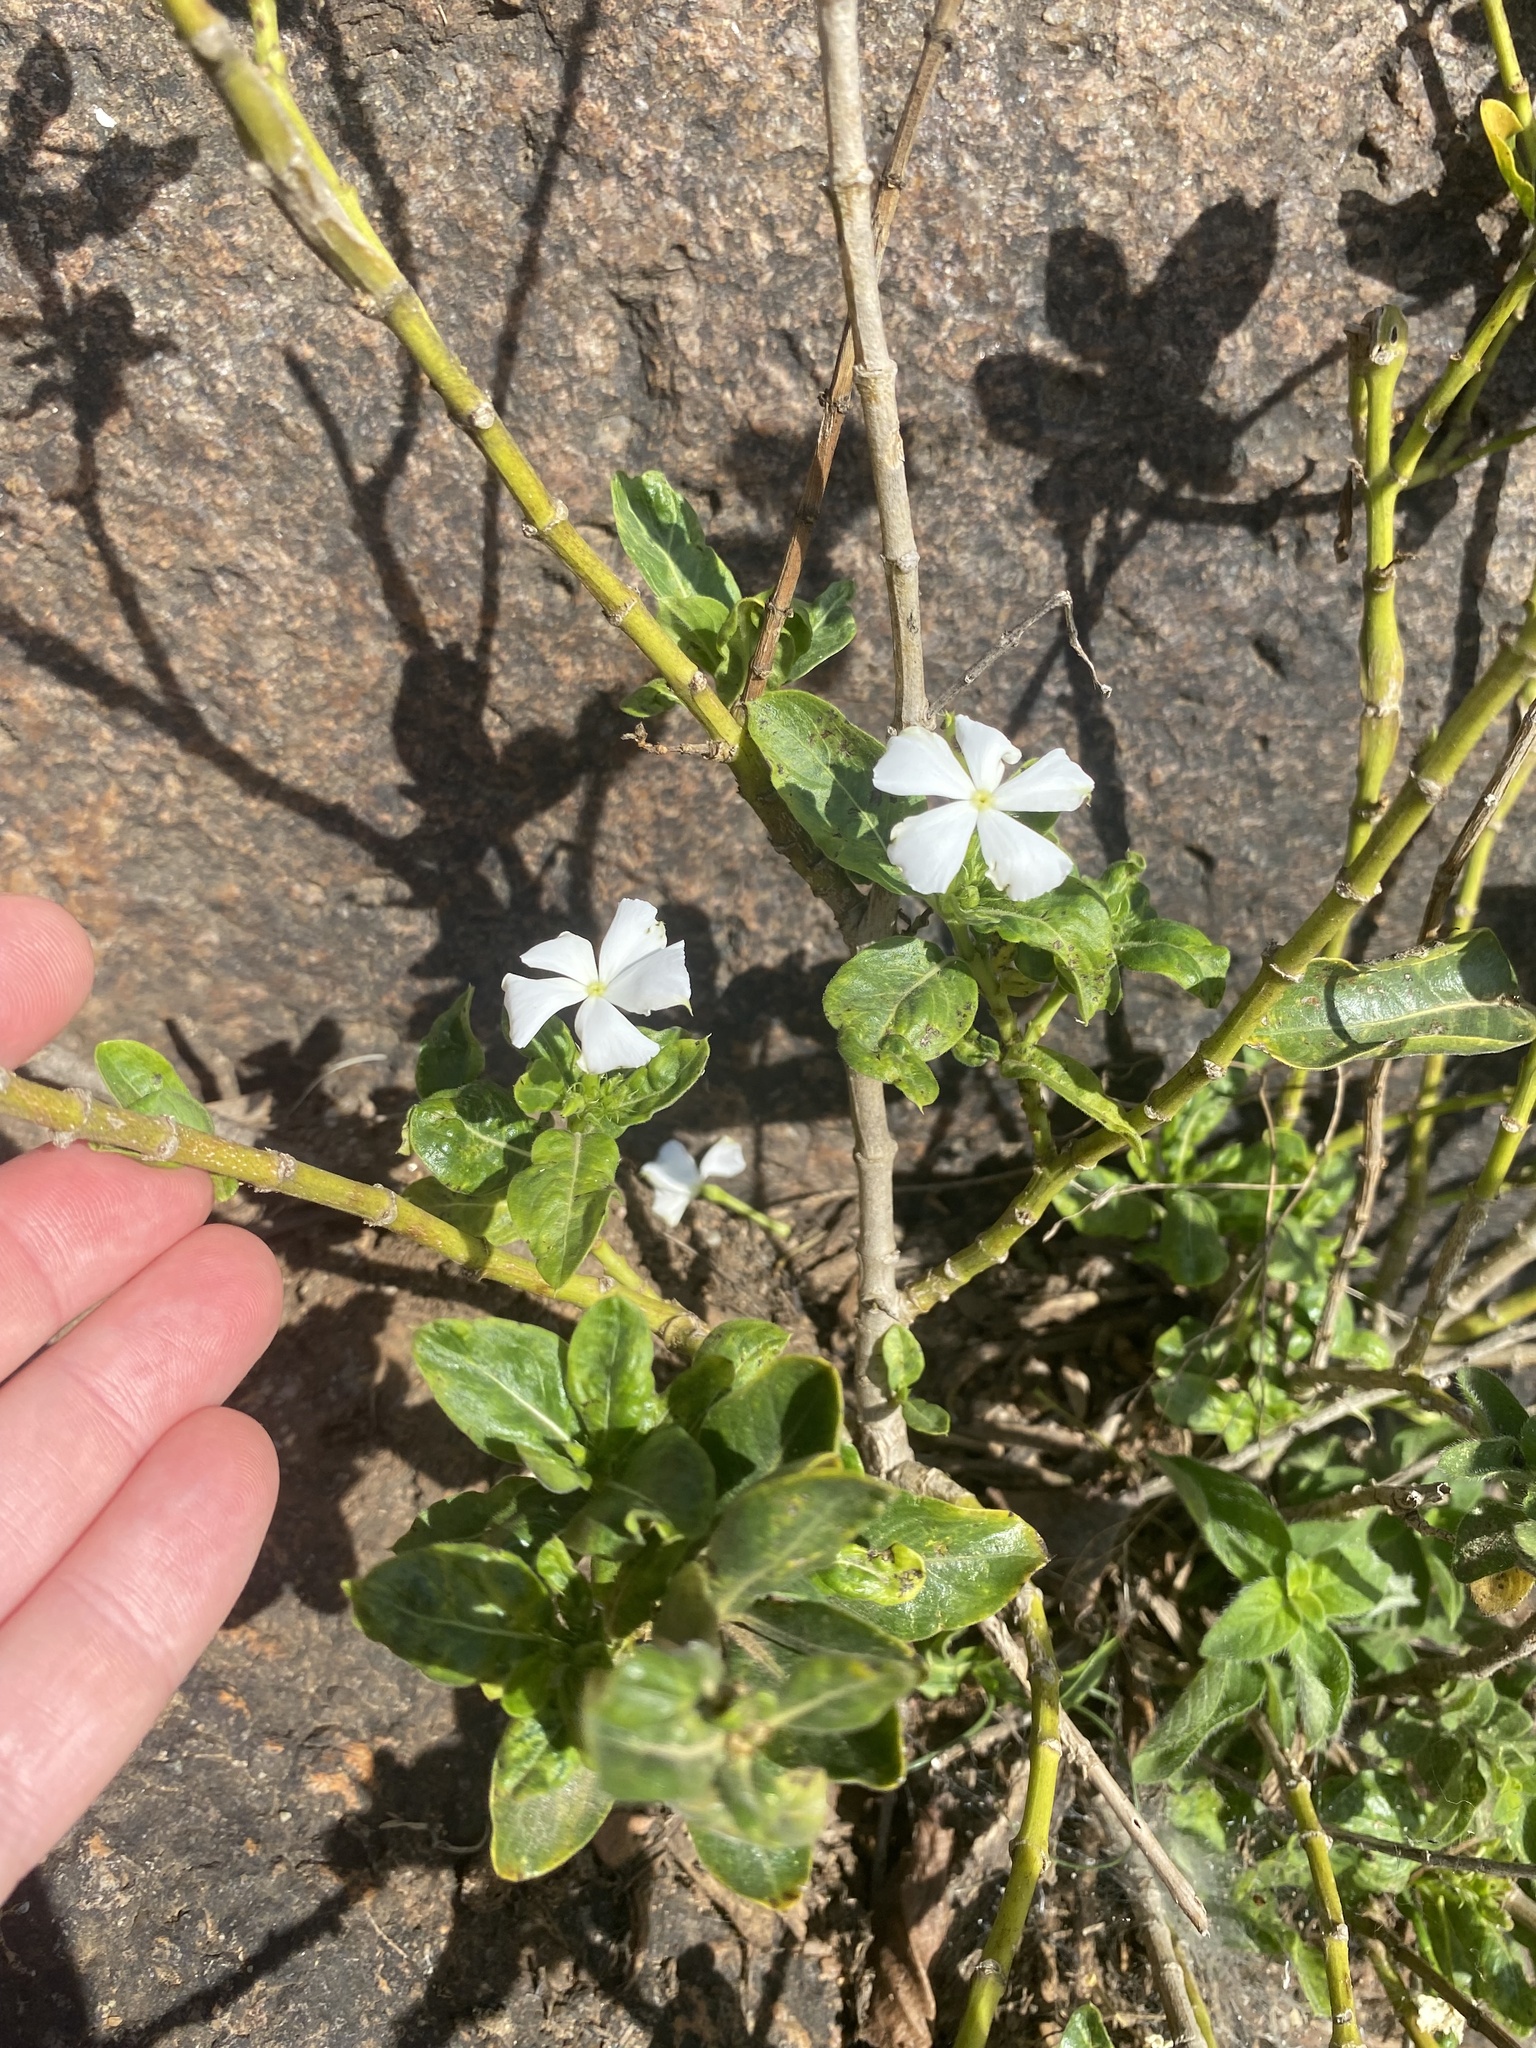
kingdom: Plantae
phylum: Tracheophyta
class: Magnoliopsida
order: Gentianales
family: Apocynaceae
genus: Catharanthus
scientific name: Catharanthus roseus
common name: Madagascar periwinkle
